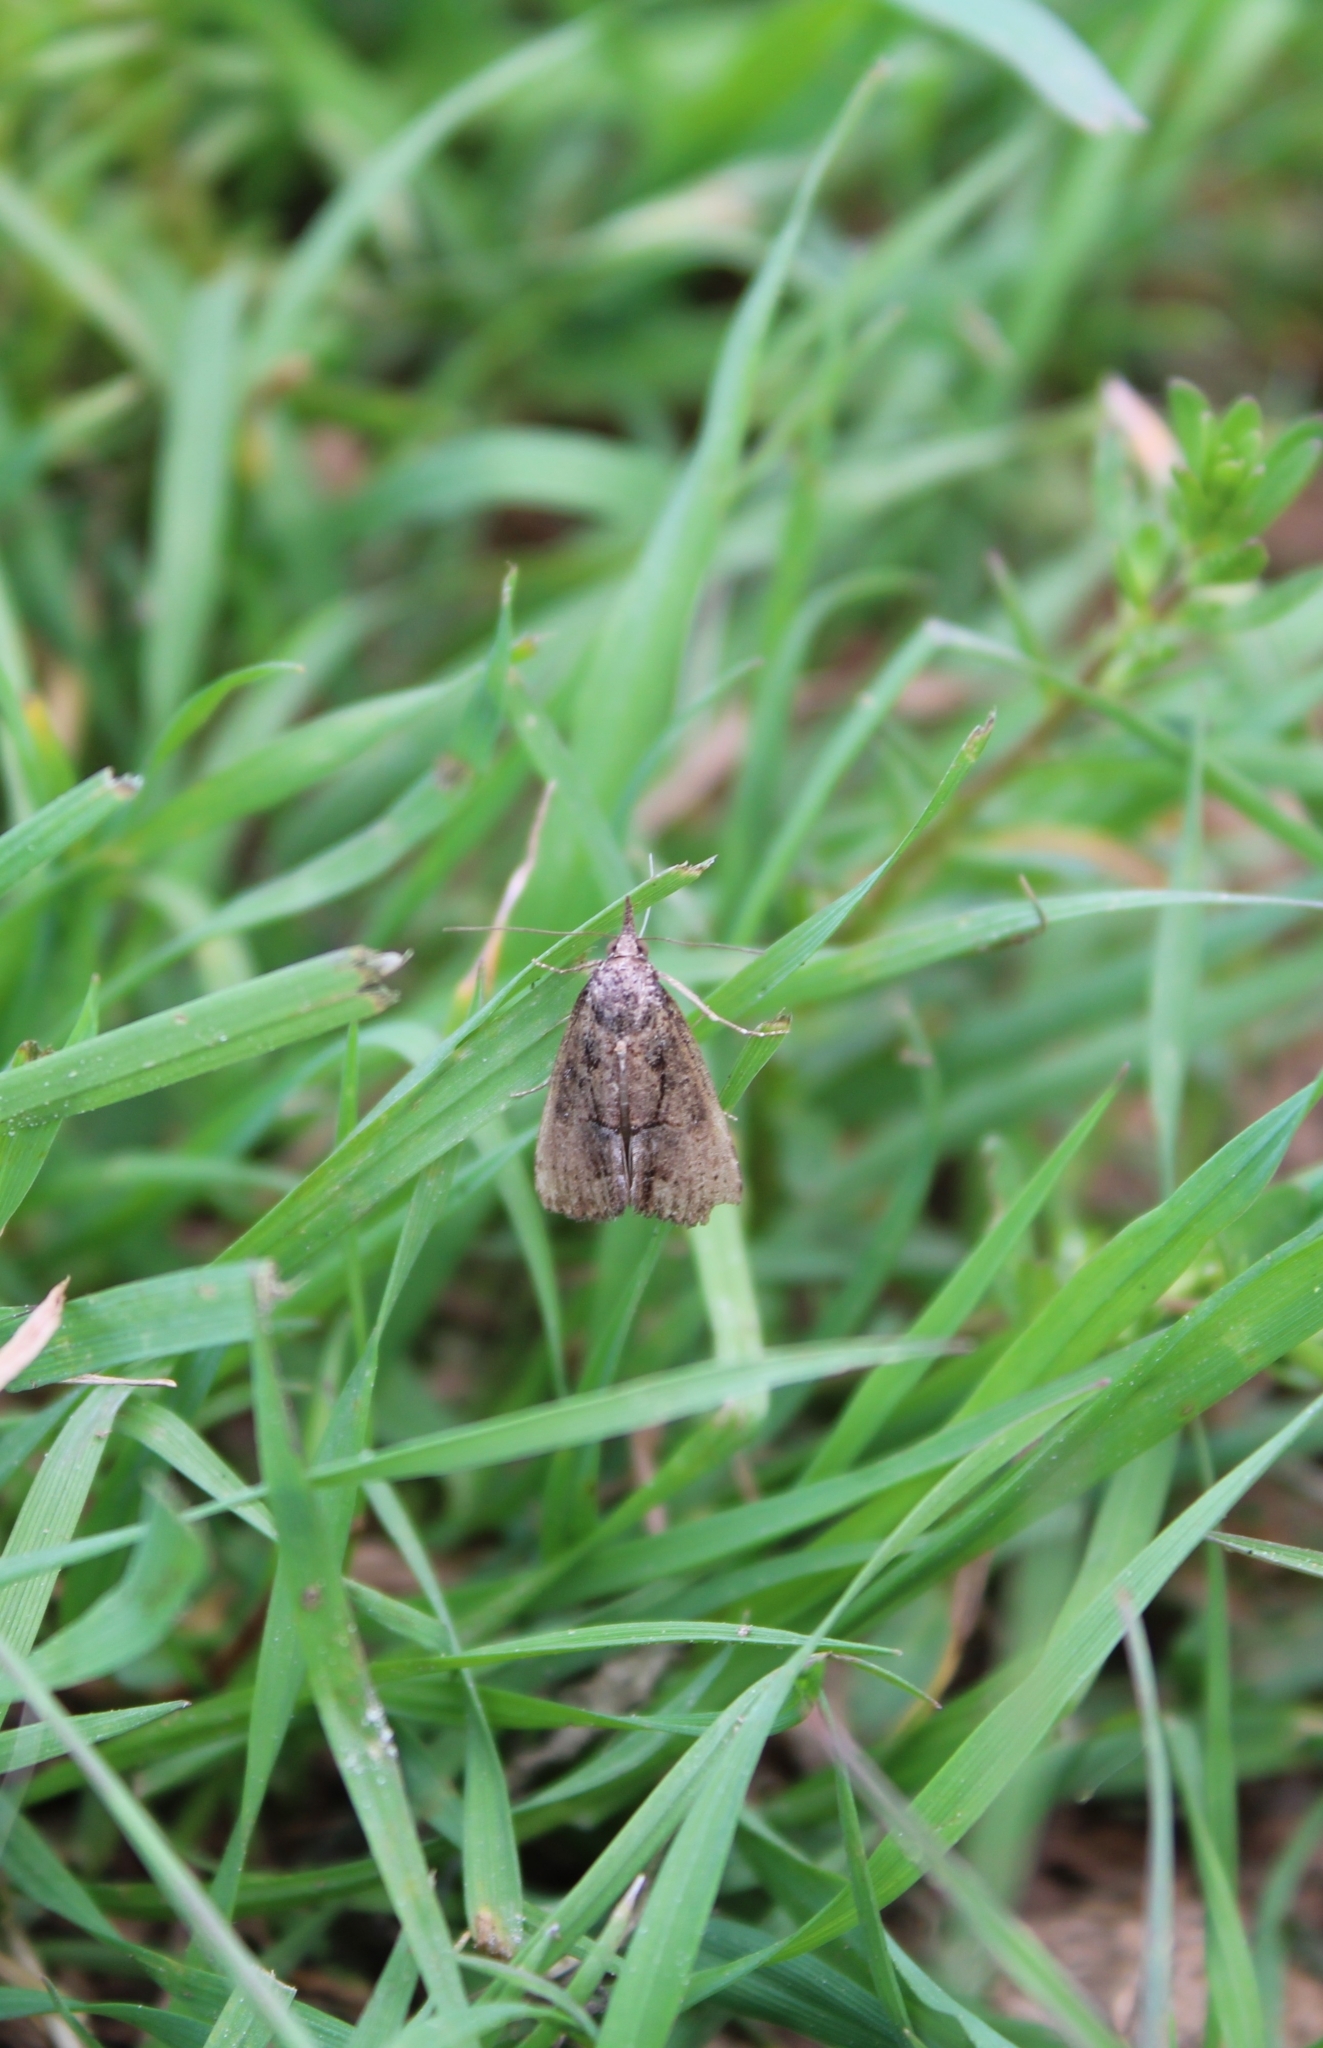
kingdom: Animalia
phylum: Arthropoda
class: Insecta
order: Lepidoptera
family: Erebidae
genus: Hypena
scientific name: Hypena scabra
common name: Green cloverworm
